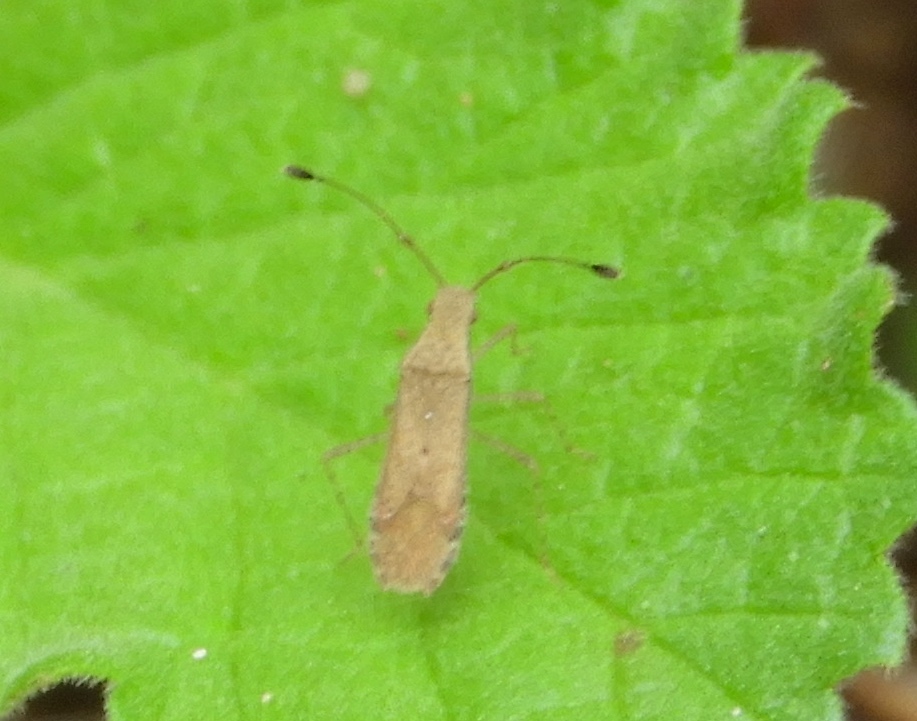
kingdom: Animalia
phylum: Arthropoda
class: Insecta
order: Hemiptera
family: Coreidae
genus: Madura
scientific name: Madura
